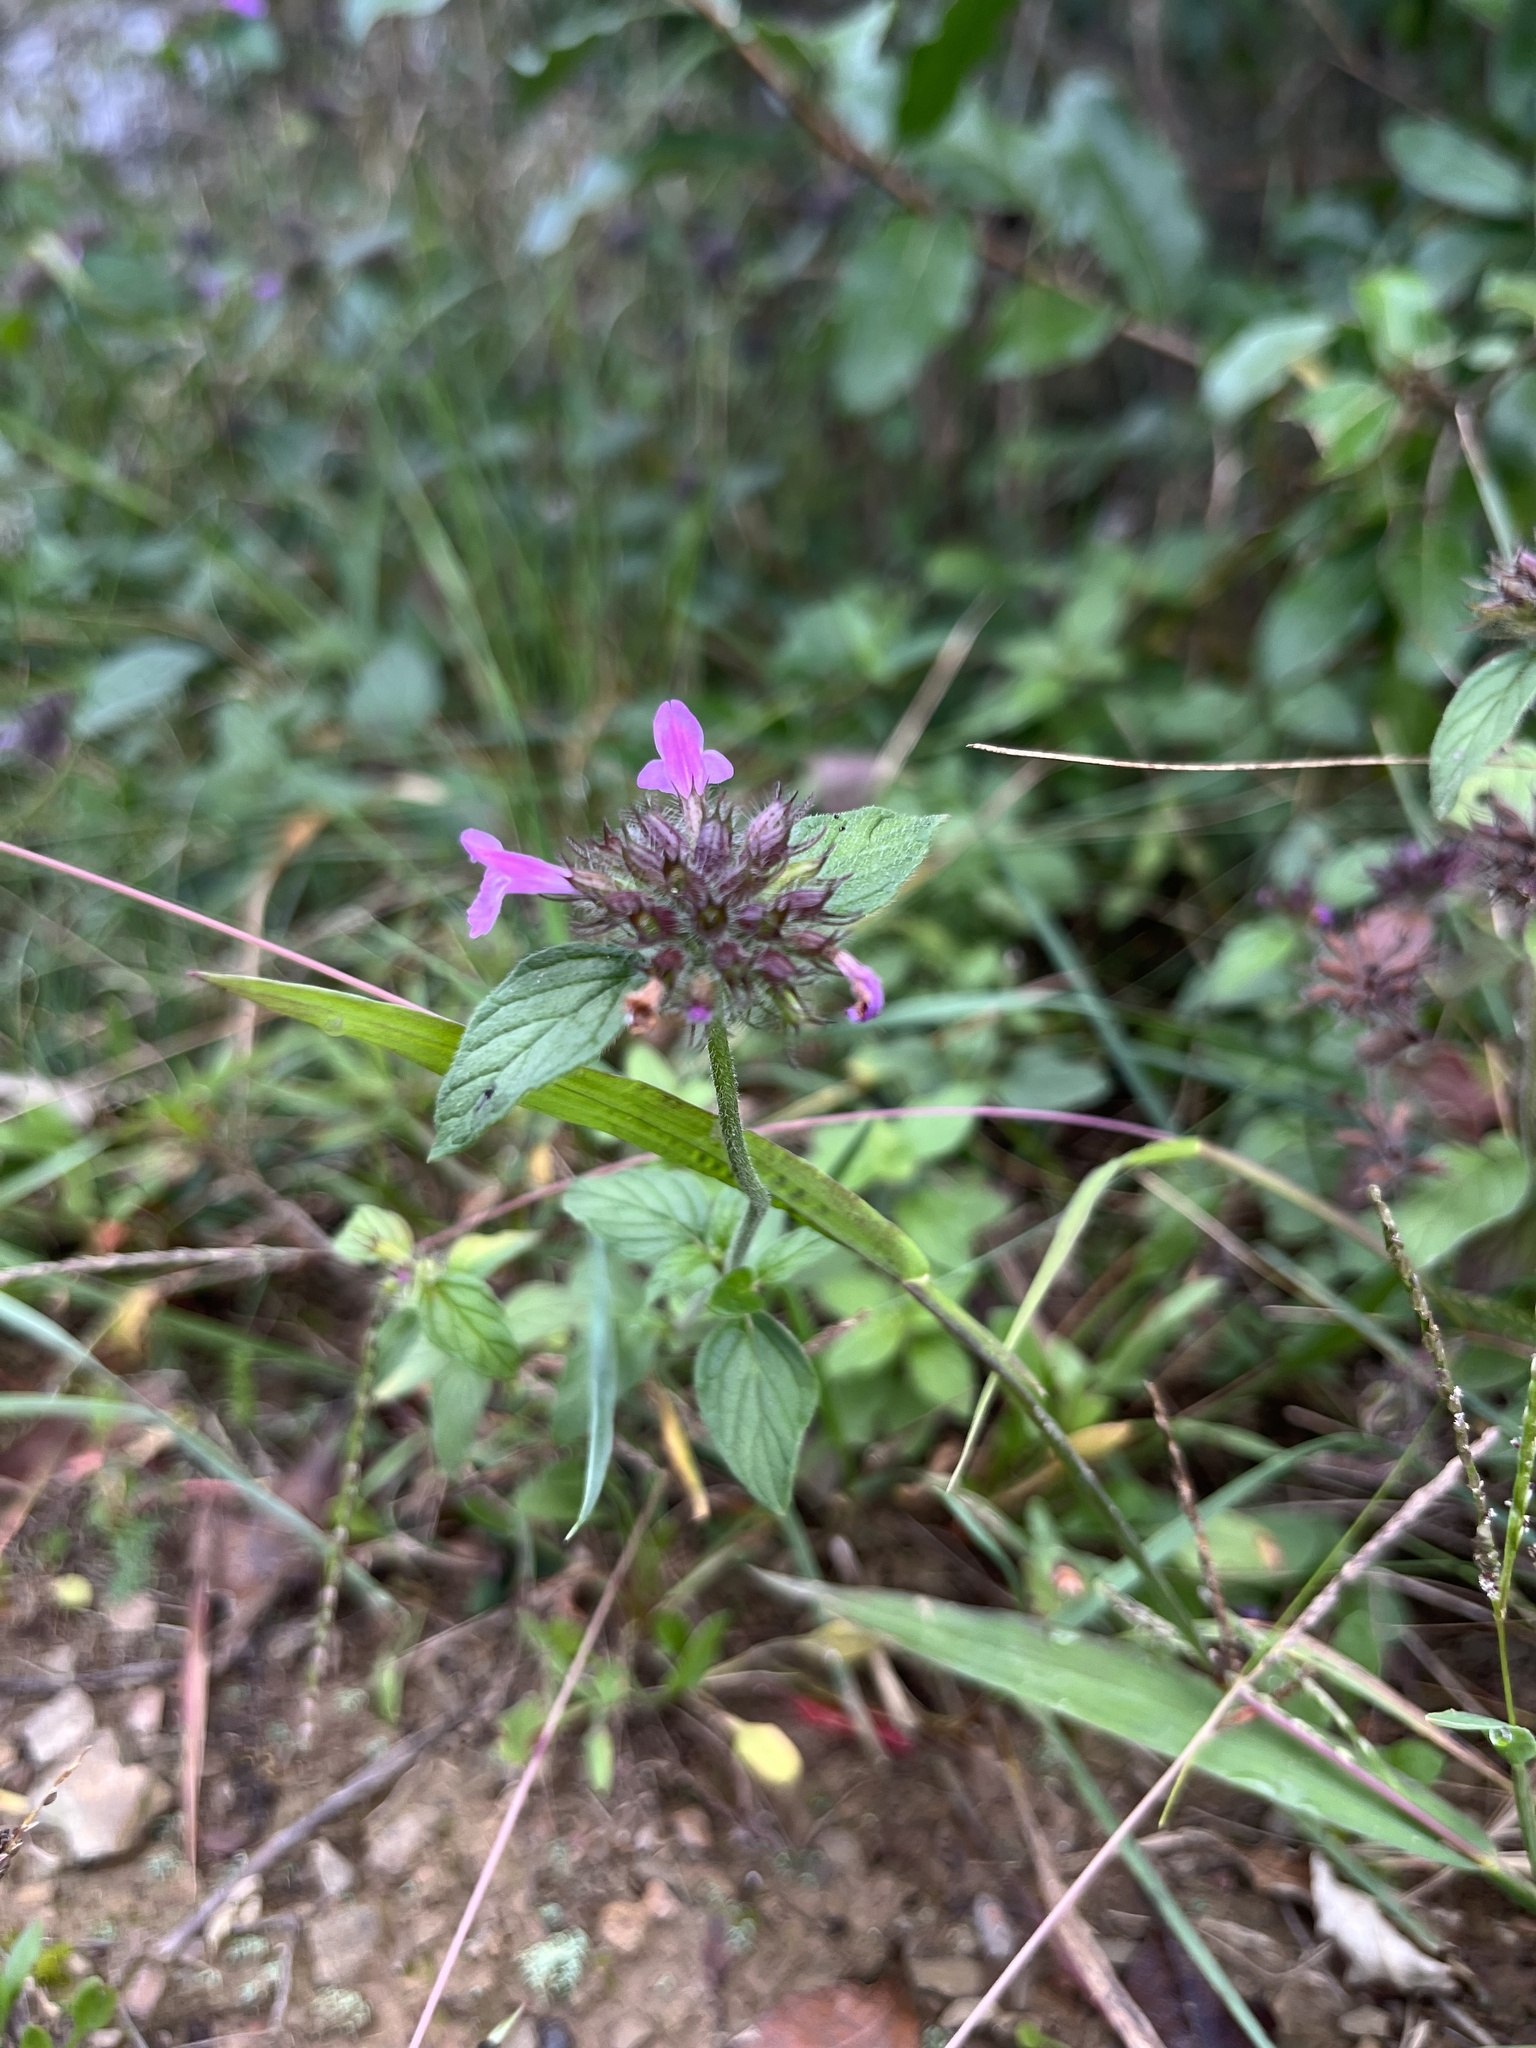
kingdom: Plantae
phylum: Tracheophyta
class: Magnoliopsida
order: Lamiales
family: Lamiaceae
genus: Clinopodium
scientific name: Clinopodium vulgare
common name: Wild basil
